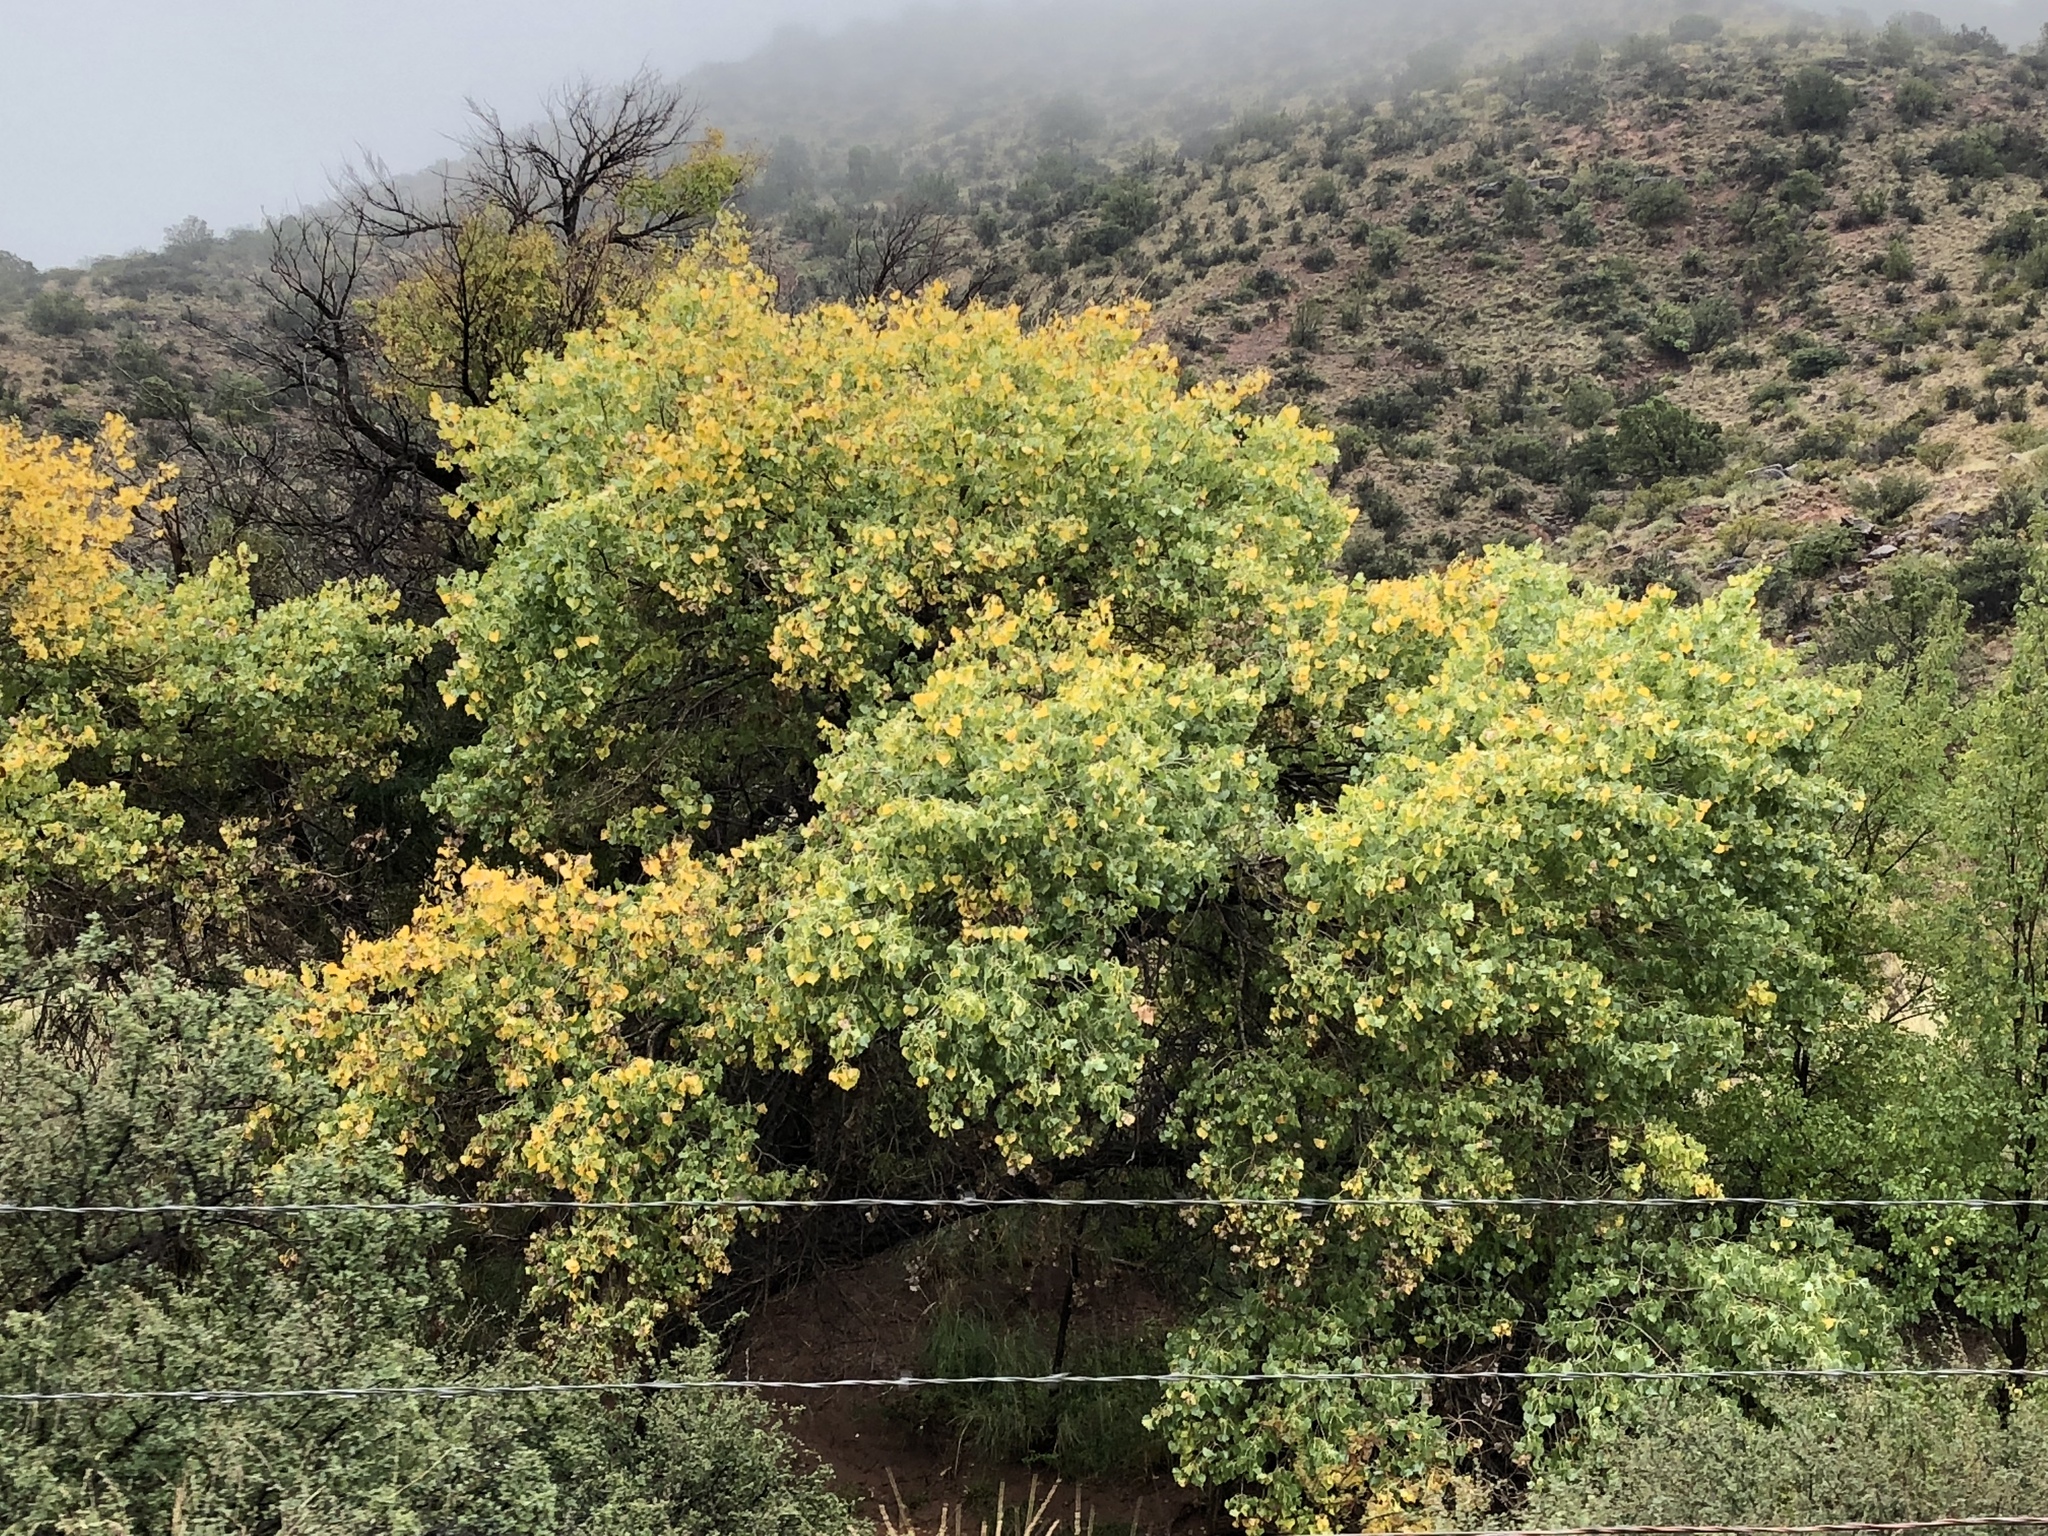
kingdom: Plantae
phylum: Tracheophyta
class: Magnoliopsida
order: Malpighiales
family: Salicaceae
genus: Populus
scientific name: Populus fremontii
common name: Fremont's cottonwood
